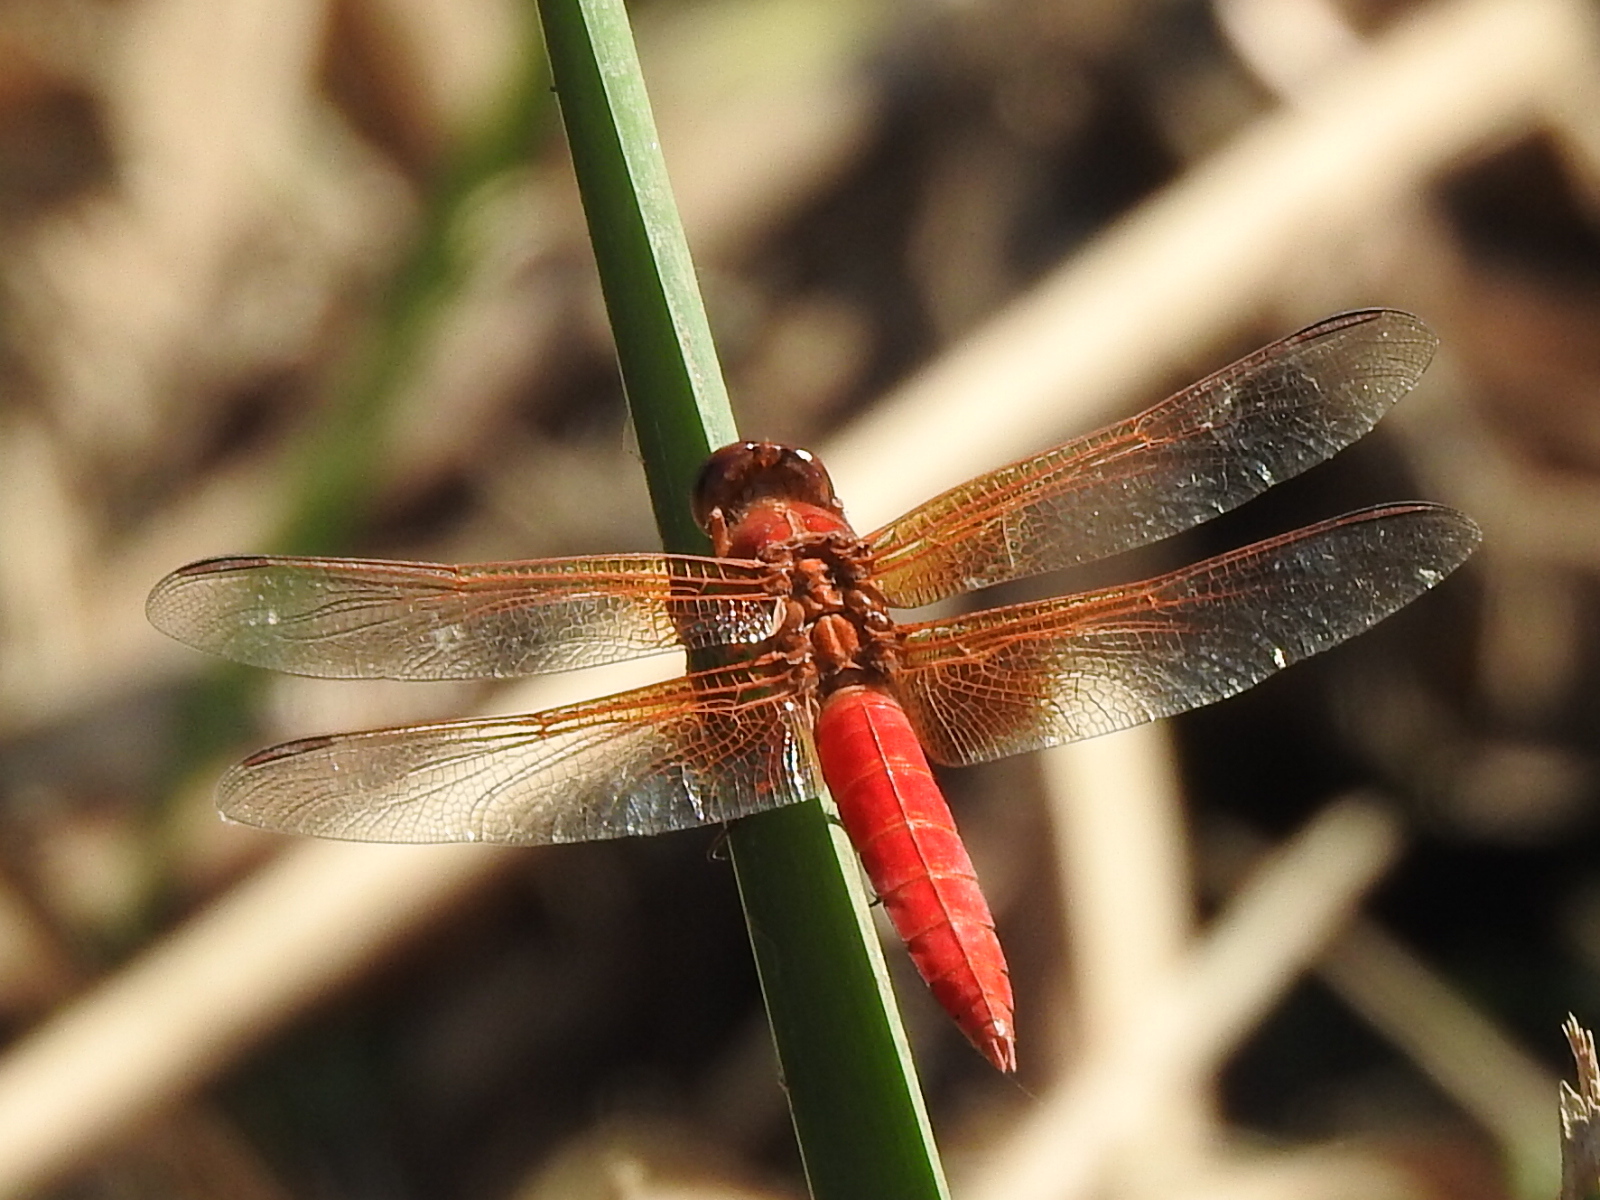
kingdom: Animalia
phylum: Arthropoda
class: Insecta
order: Odonata
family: Libellulidae
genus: Libellula
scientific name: Libellula croceipennis
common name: Neon skimmer
